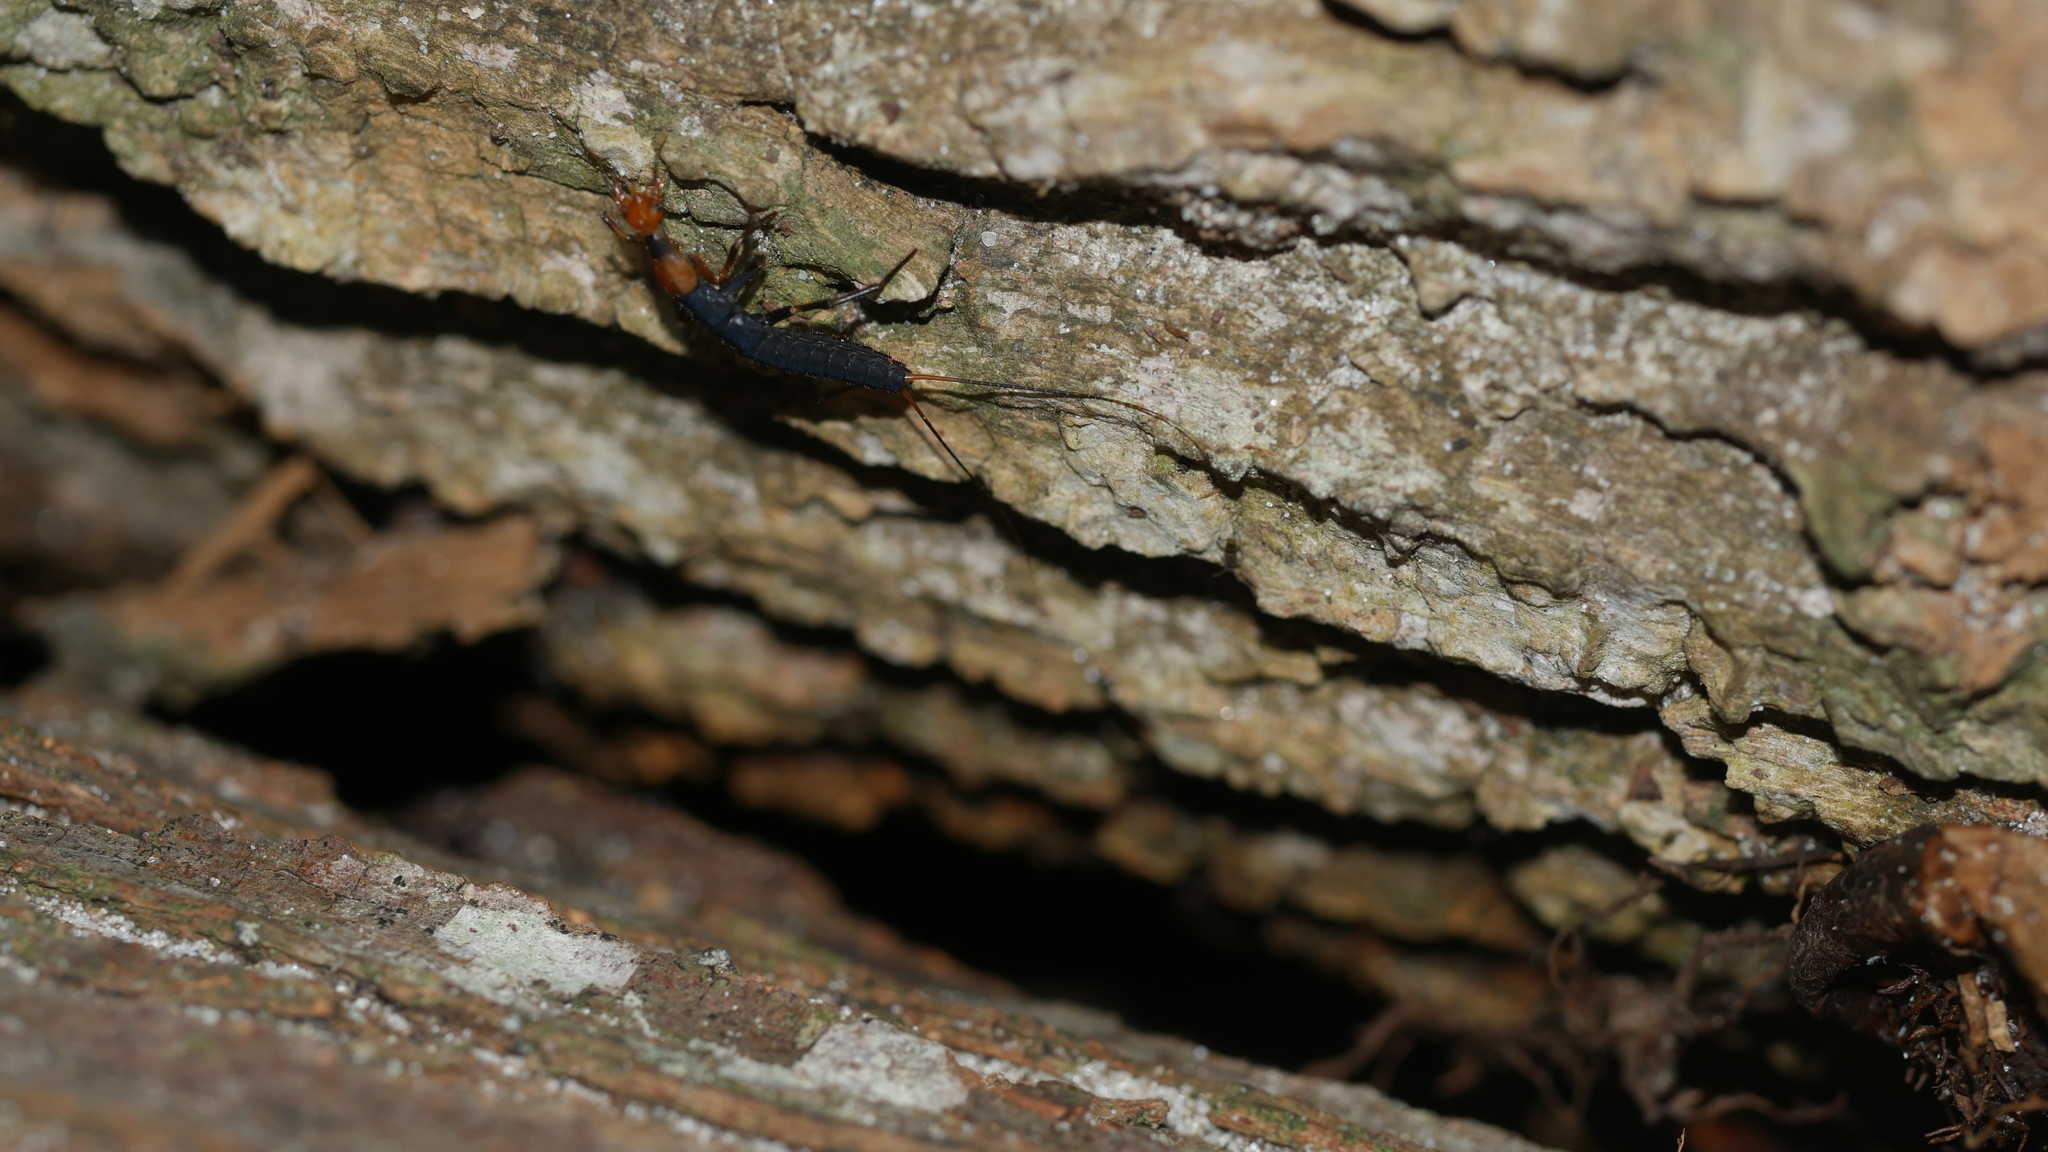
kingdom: Animalia
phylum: Arthropoda
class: Insecta
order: Coleoptera
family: Carabidae
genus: Galerita
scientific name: Galerita
